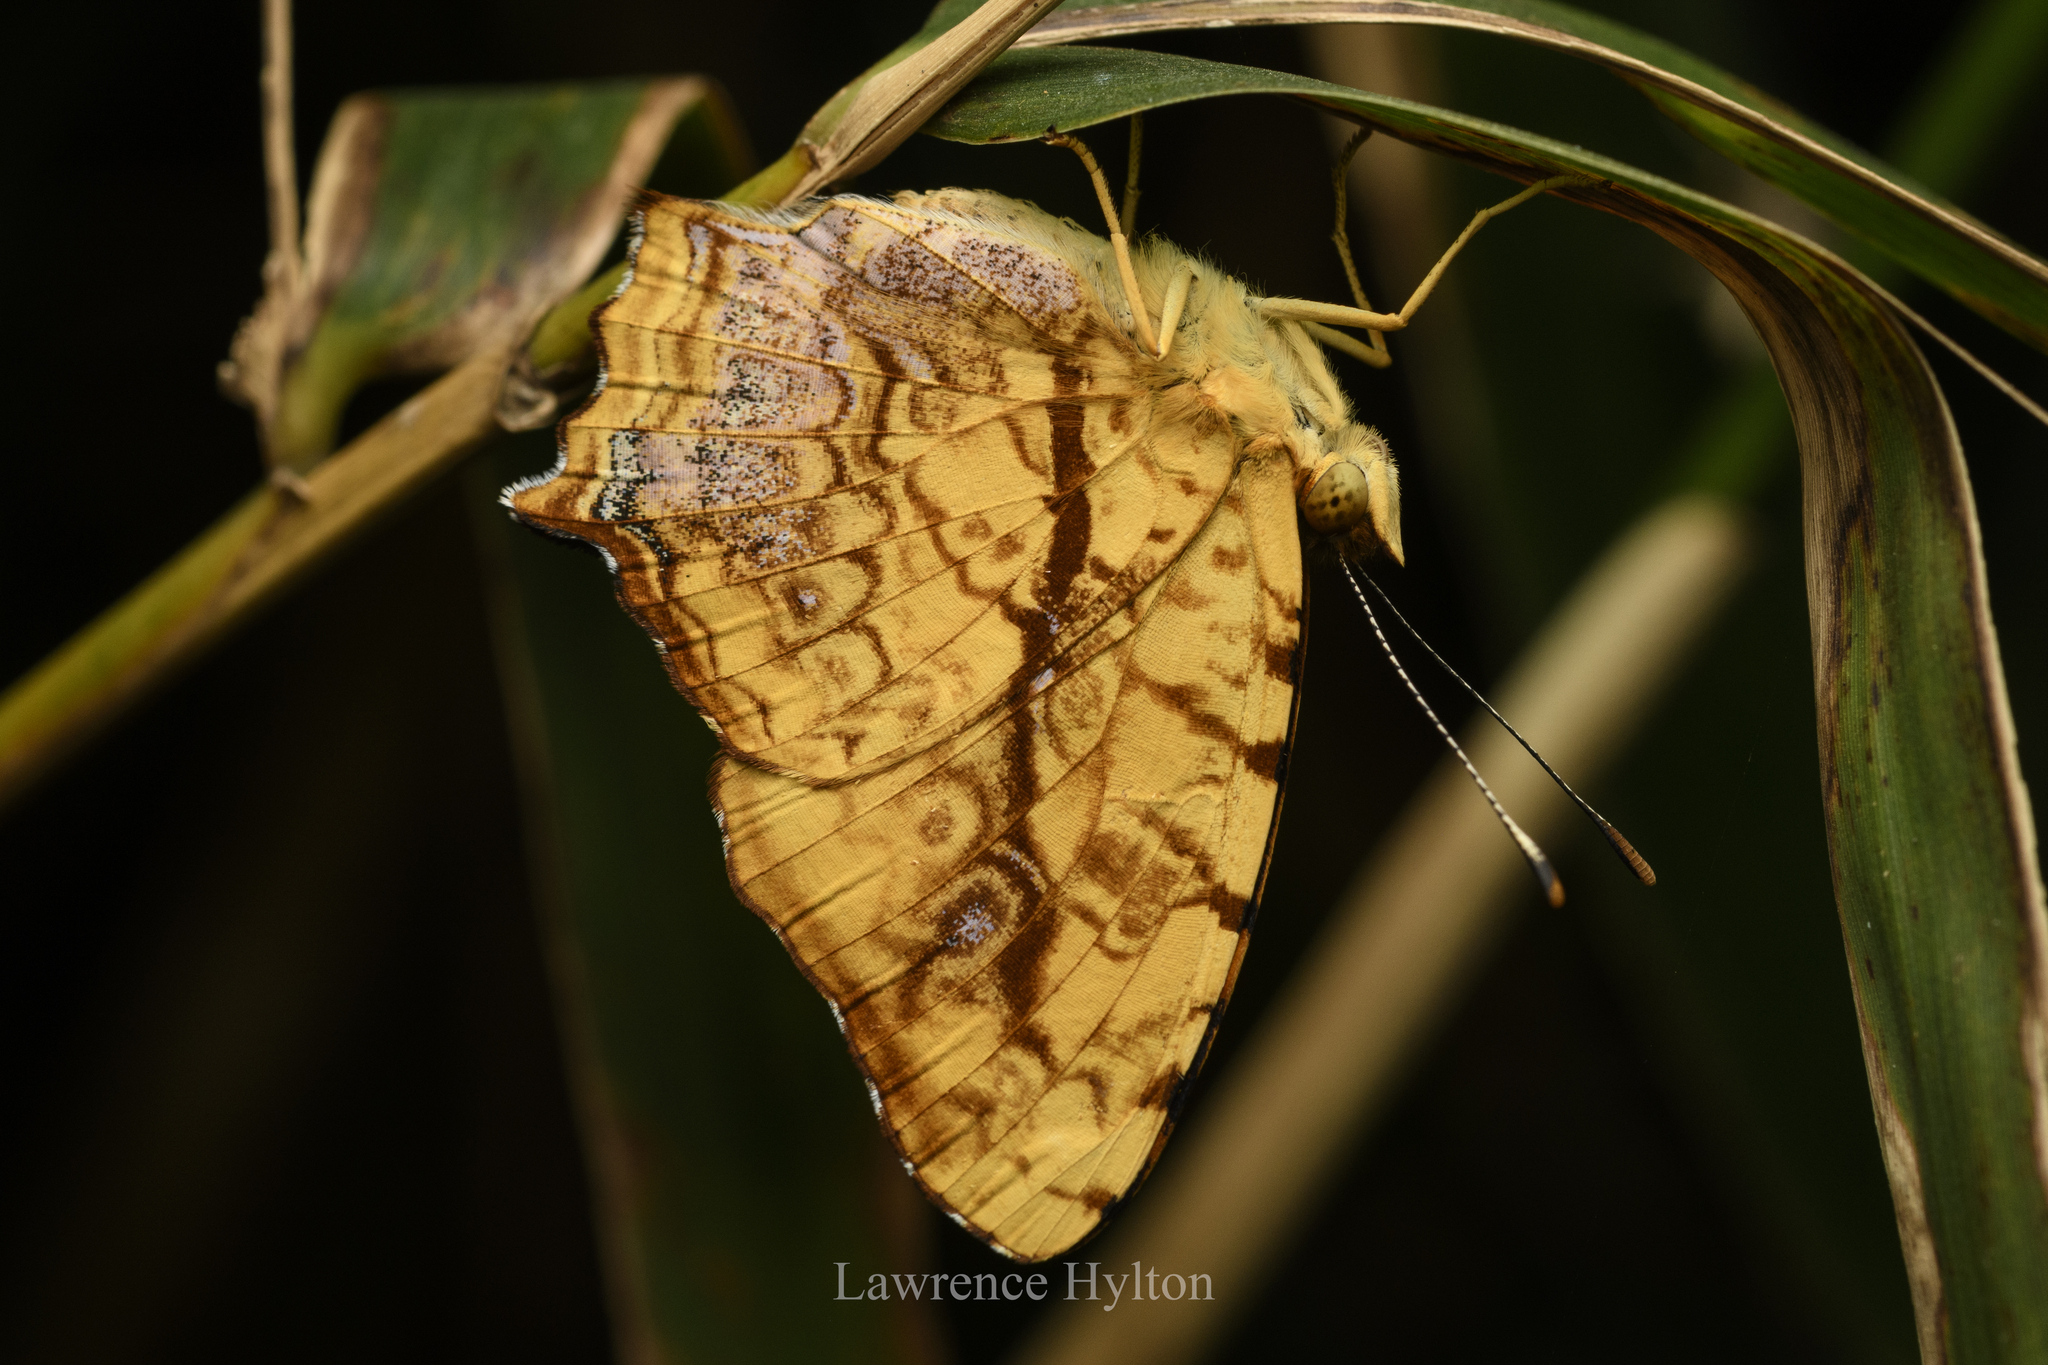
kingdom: Animalia
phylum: Arthropoda
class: Insecta
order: Lepidoptera
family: Nymphalidae
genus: Symbrenthia
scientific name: Symbrenthia hypselis
